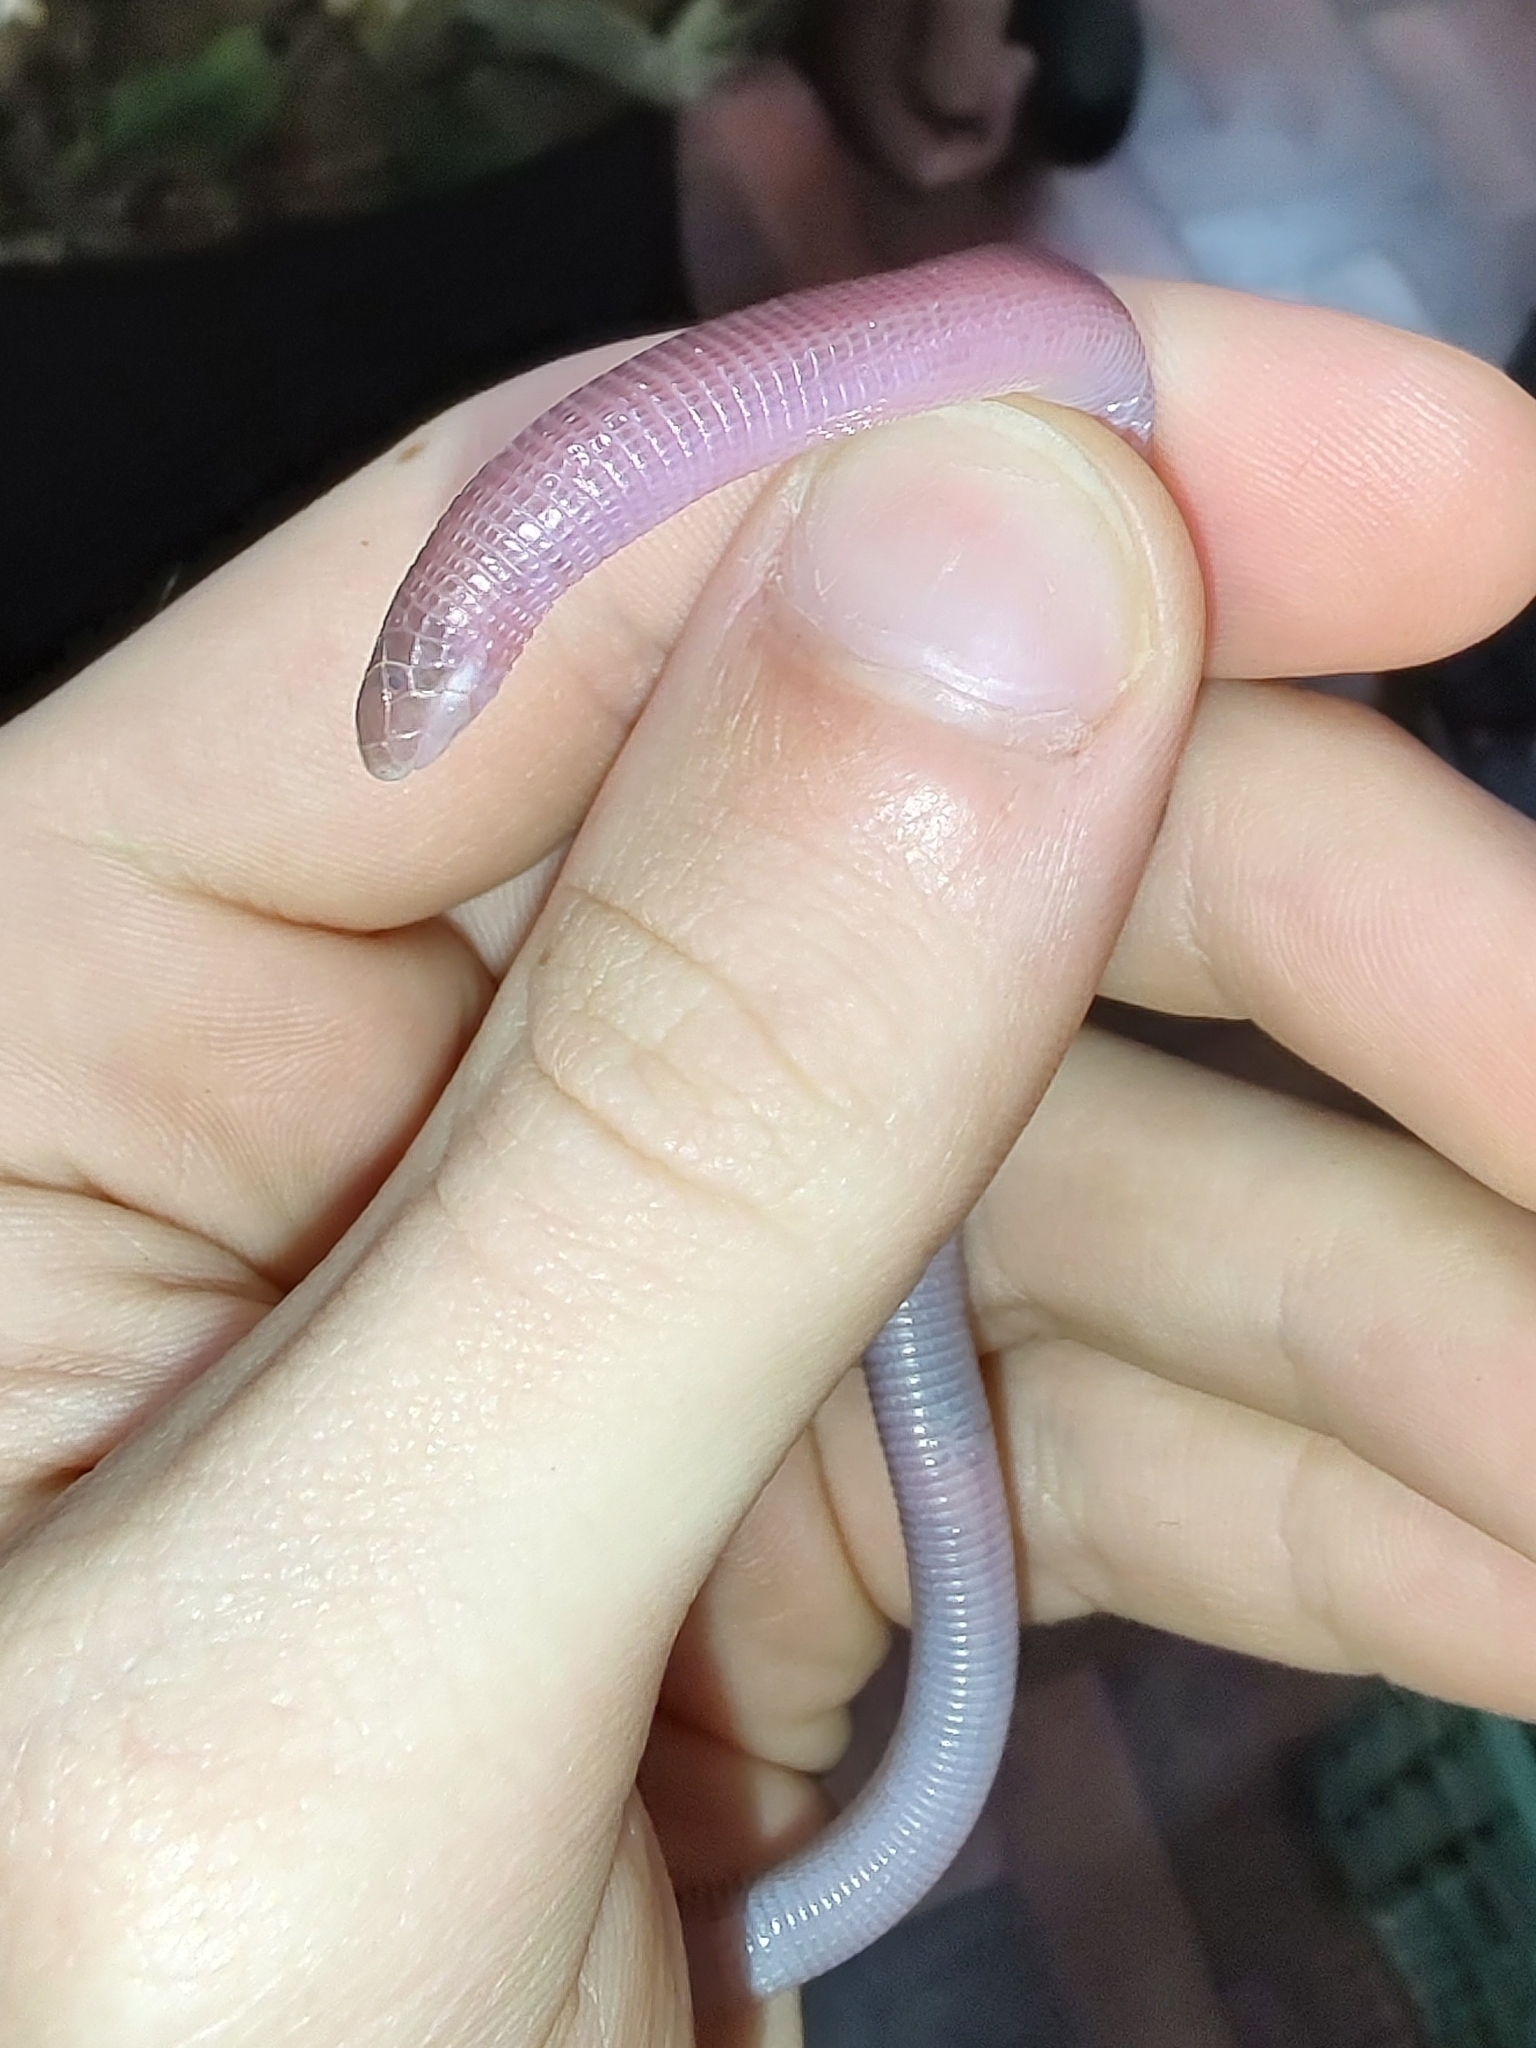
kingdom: Animalia
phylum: Chordata
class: Squamata
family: Amphisbaenidae
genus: Amphisbaena
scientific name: Amphisbaena darwinii
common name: Darwin's ringed worm lizard
